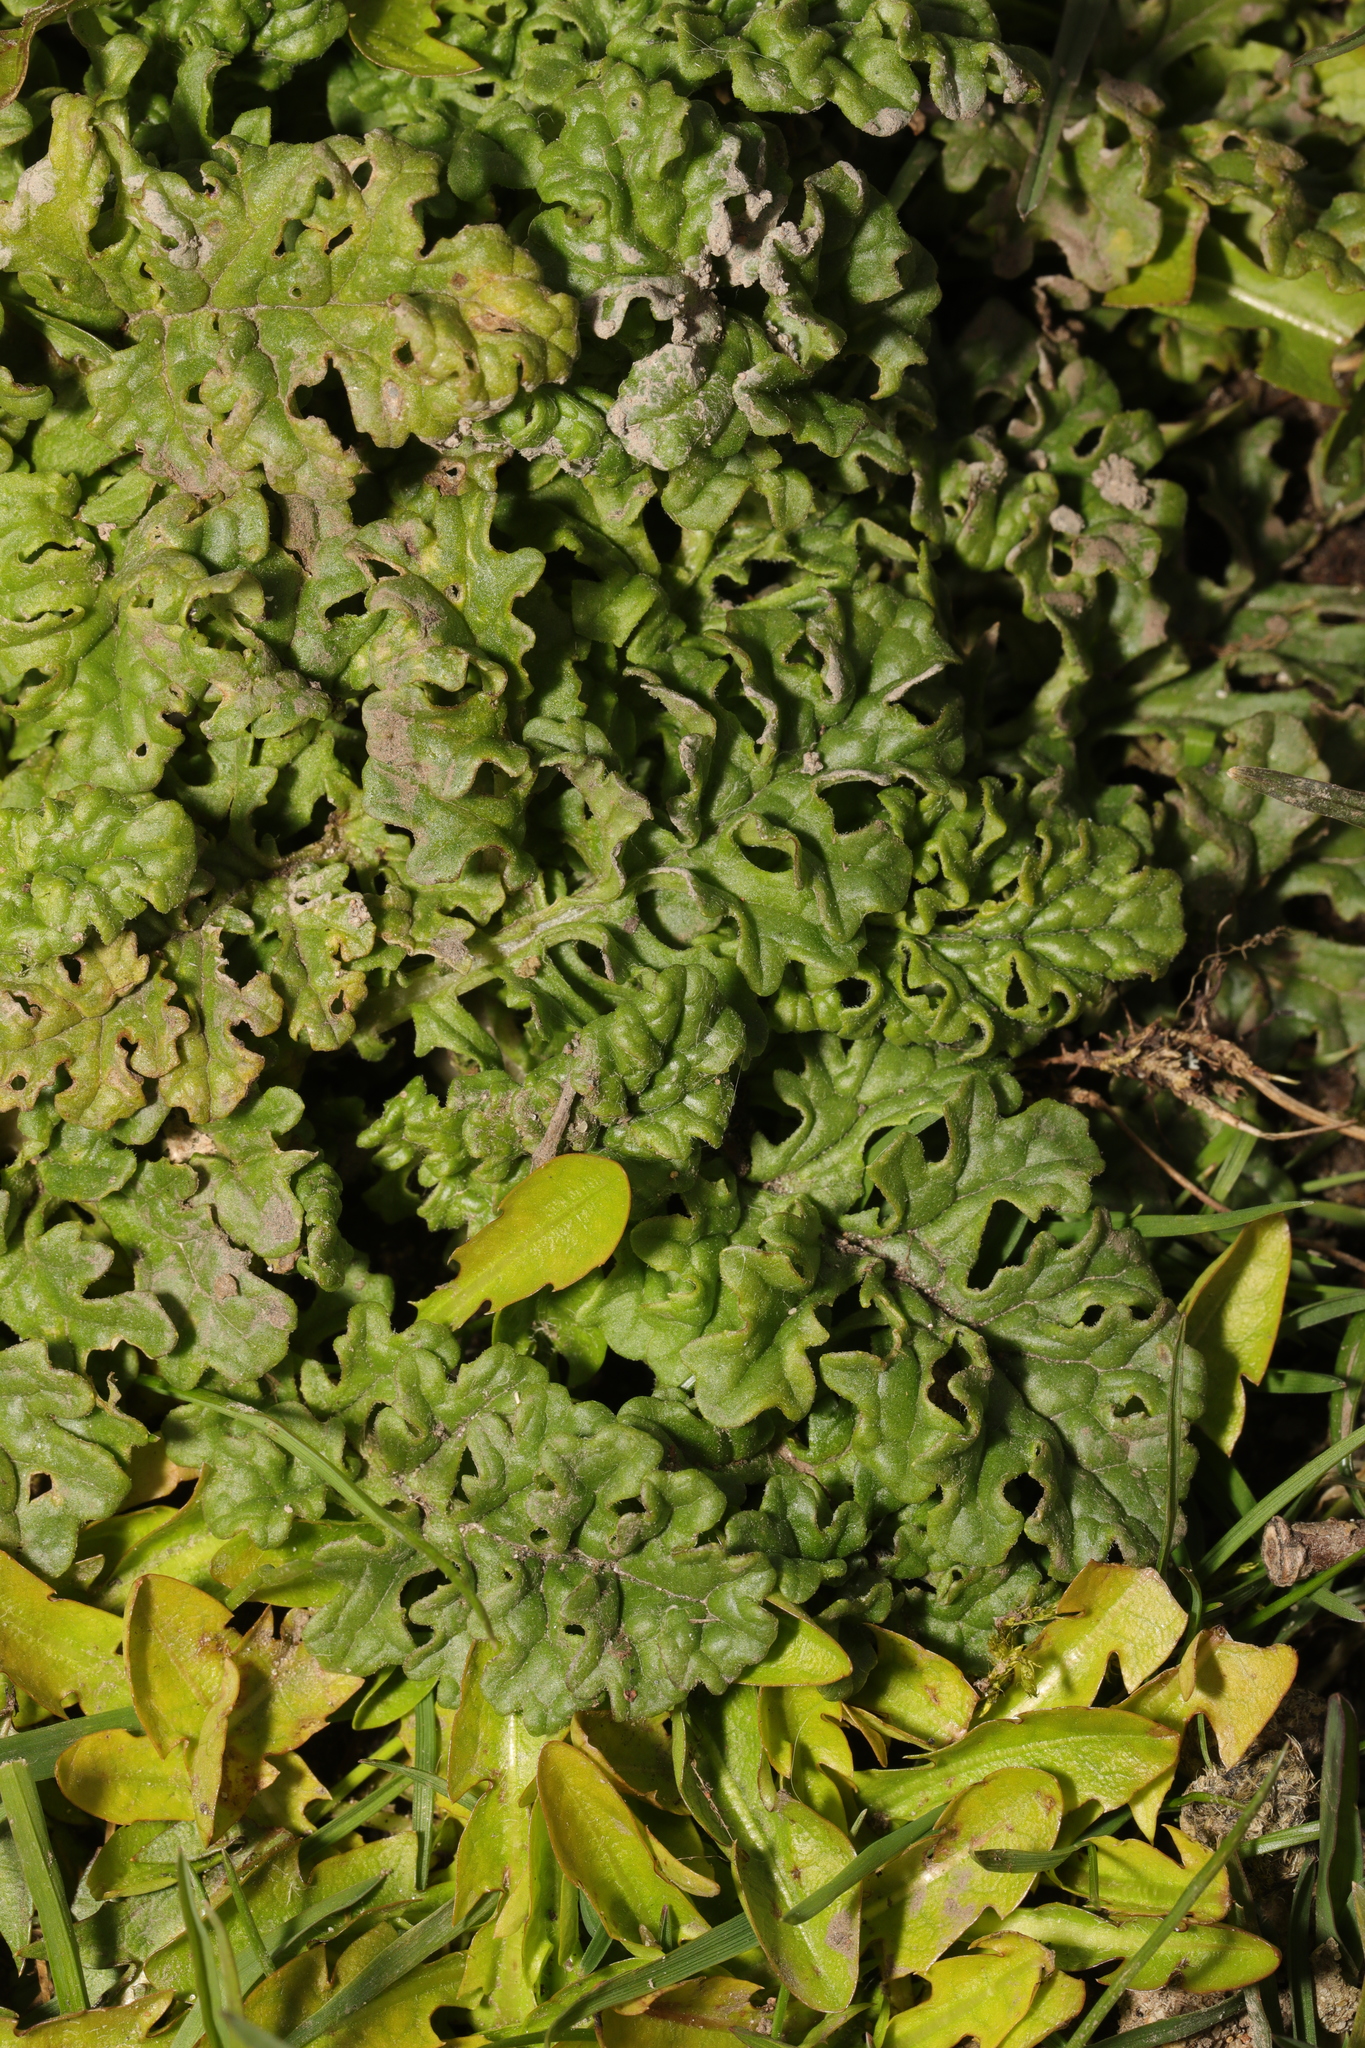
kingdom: Plantae
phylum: Tracheophyta
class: Magnoliopsida
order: Asterales
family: Asteraceae
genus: Jacobaea
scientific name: Jacobaea vulgaris
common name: Stinking willie
